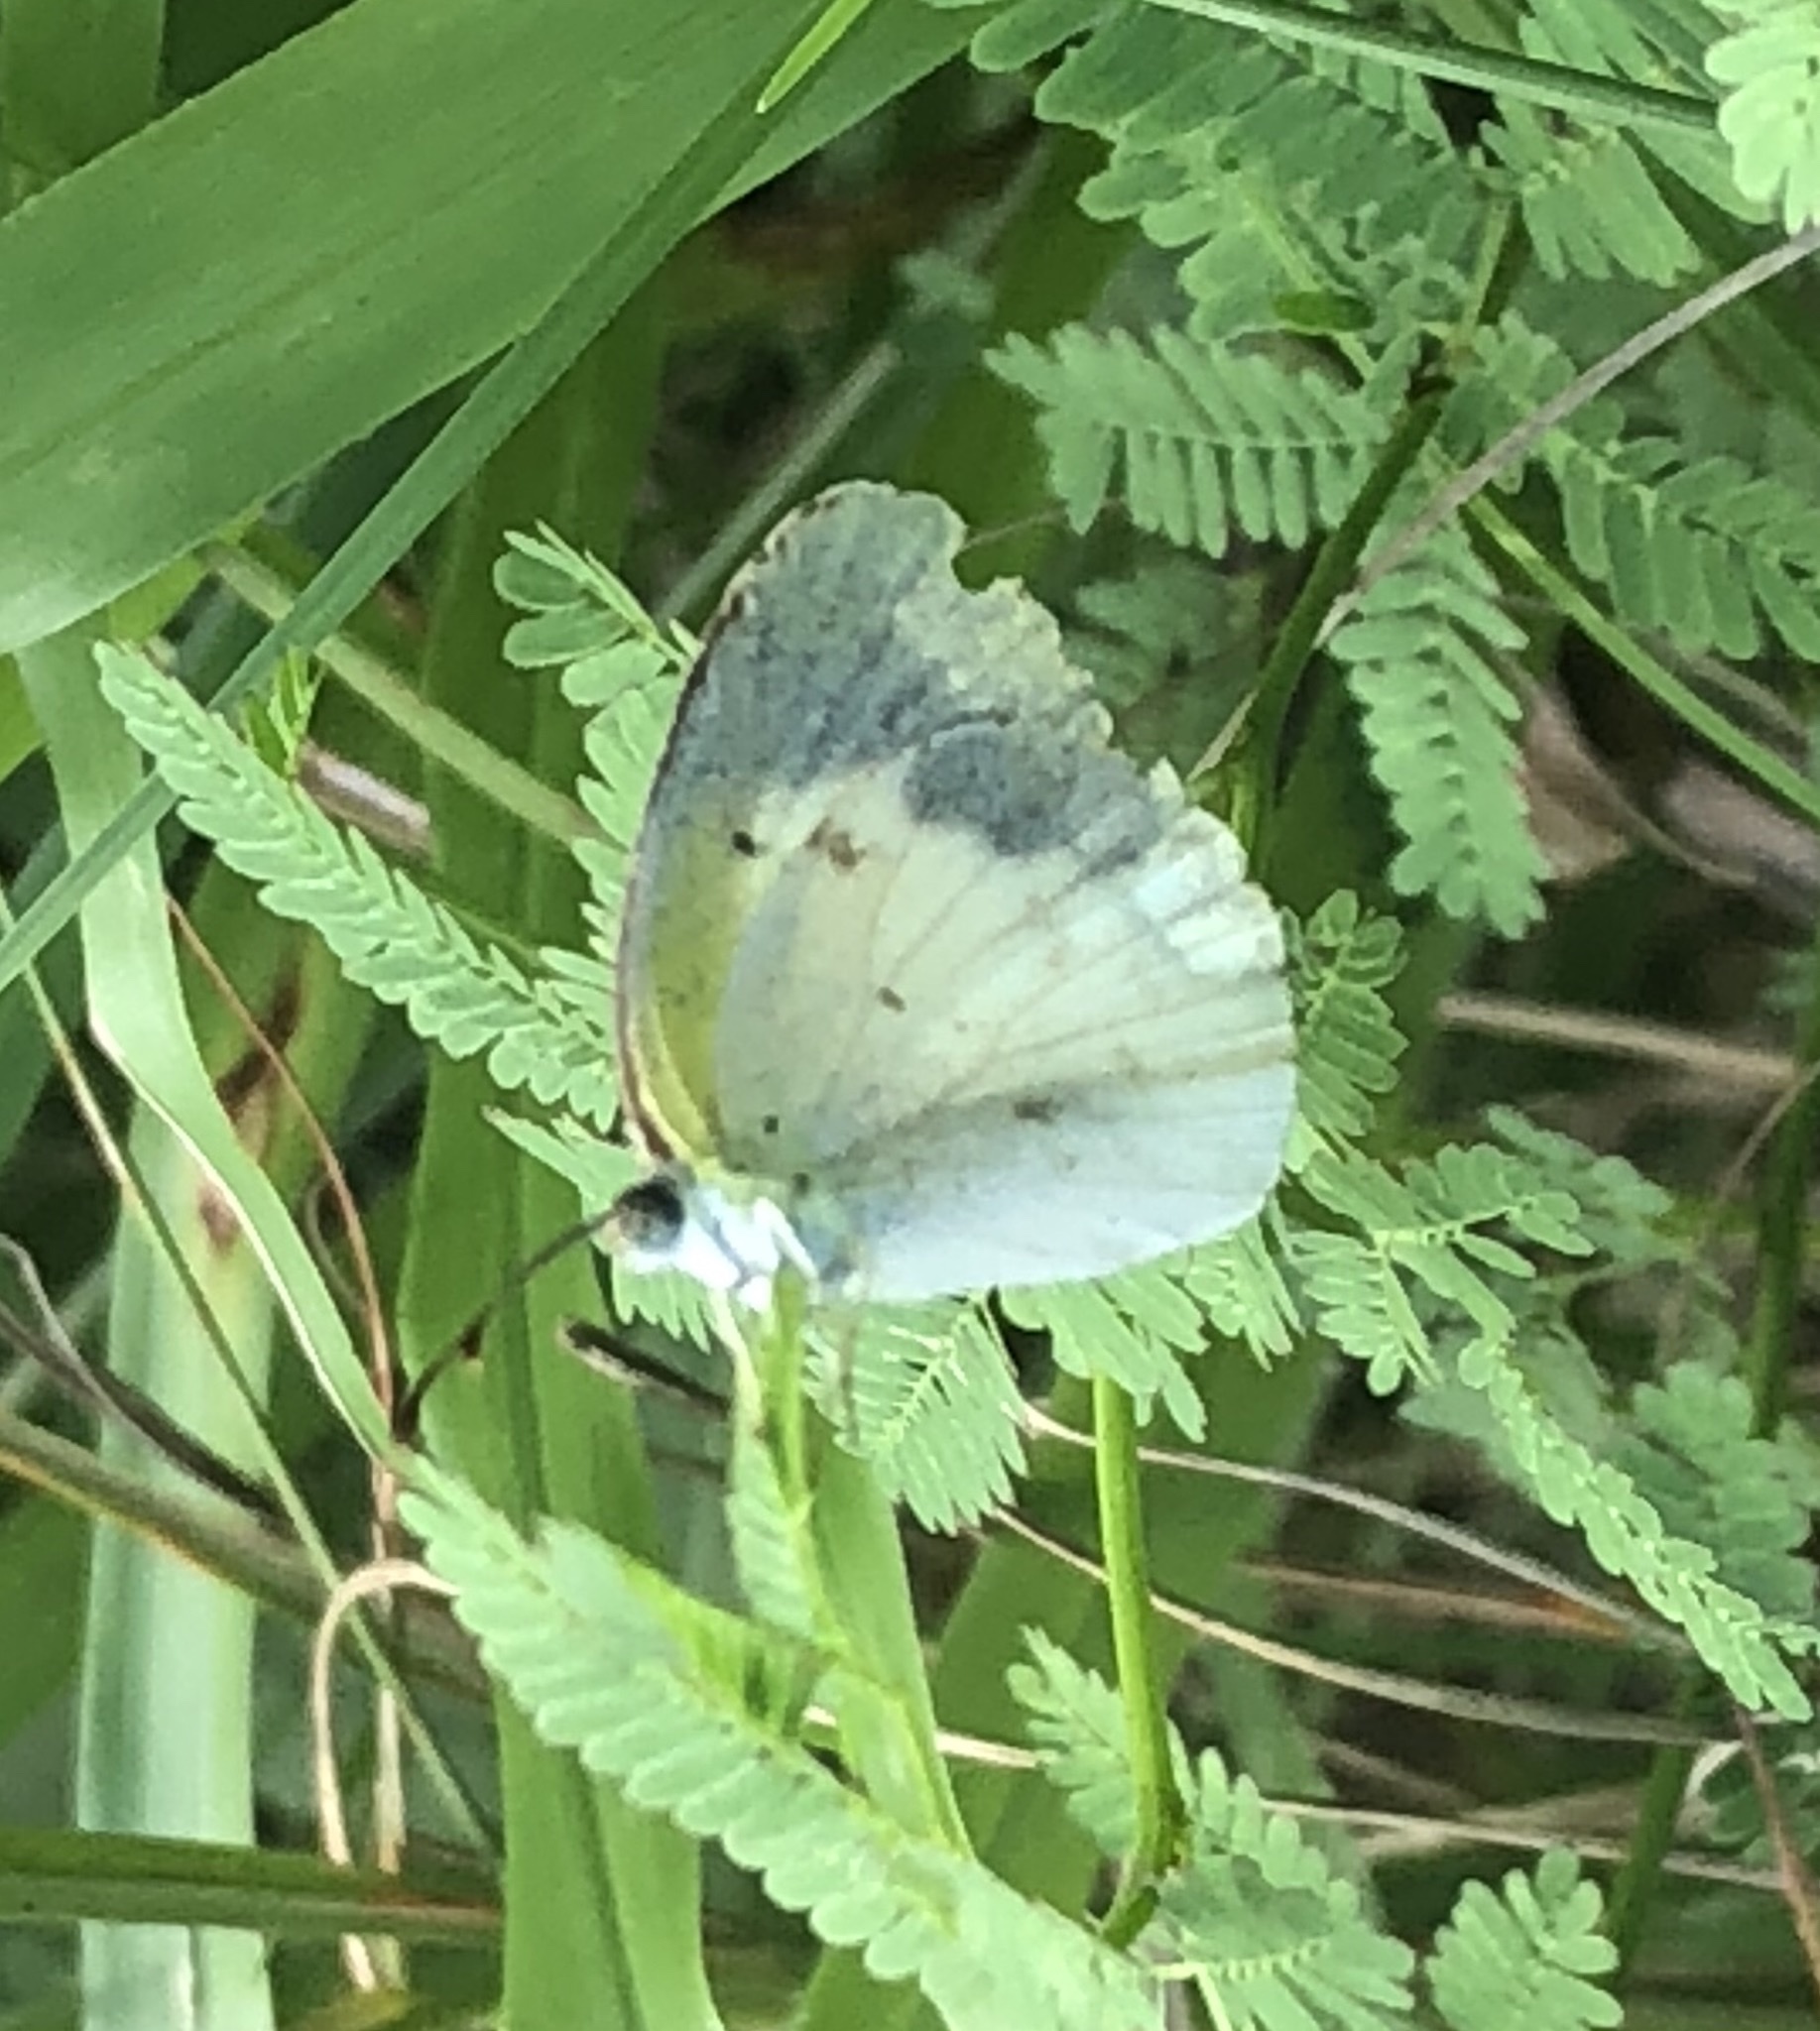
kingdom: Animalia
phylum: Arthropoda
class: Insecta
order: Lepidoptera
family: Pieridae
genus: Pyrisitia
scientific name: Pyrisitia lisa
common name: Little yellow
